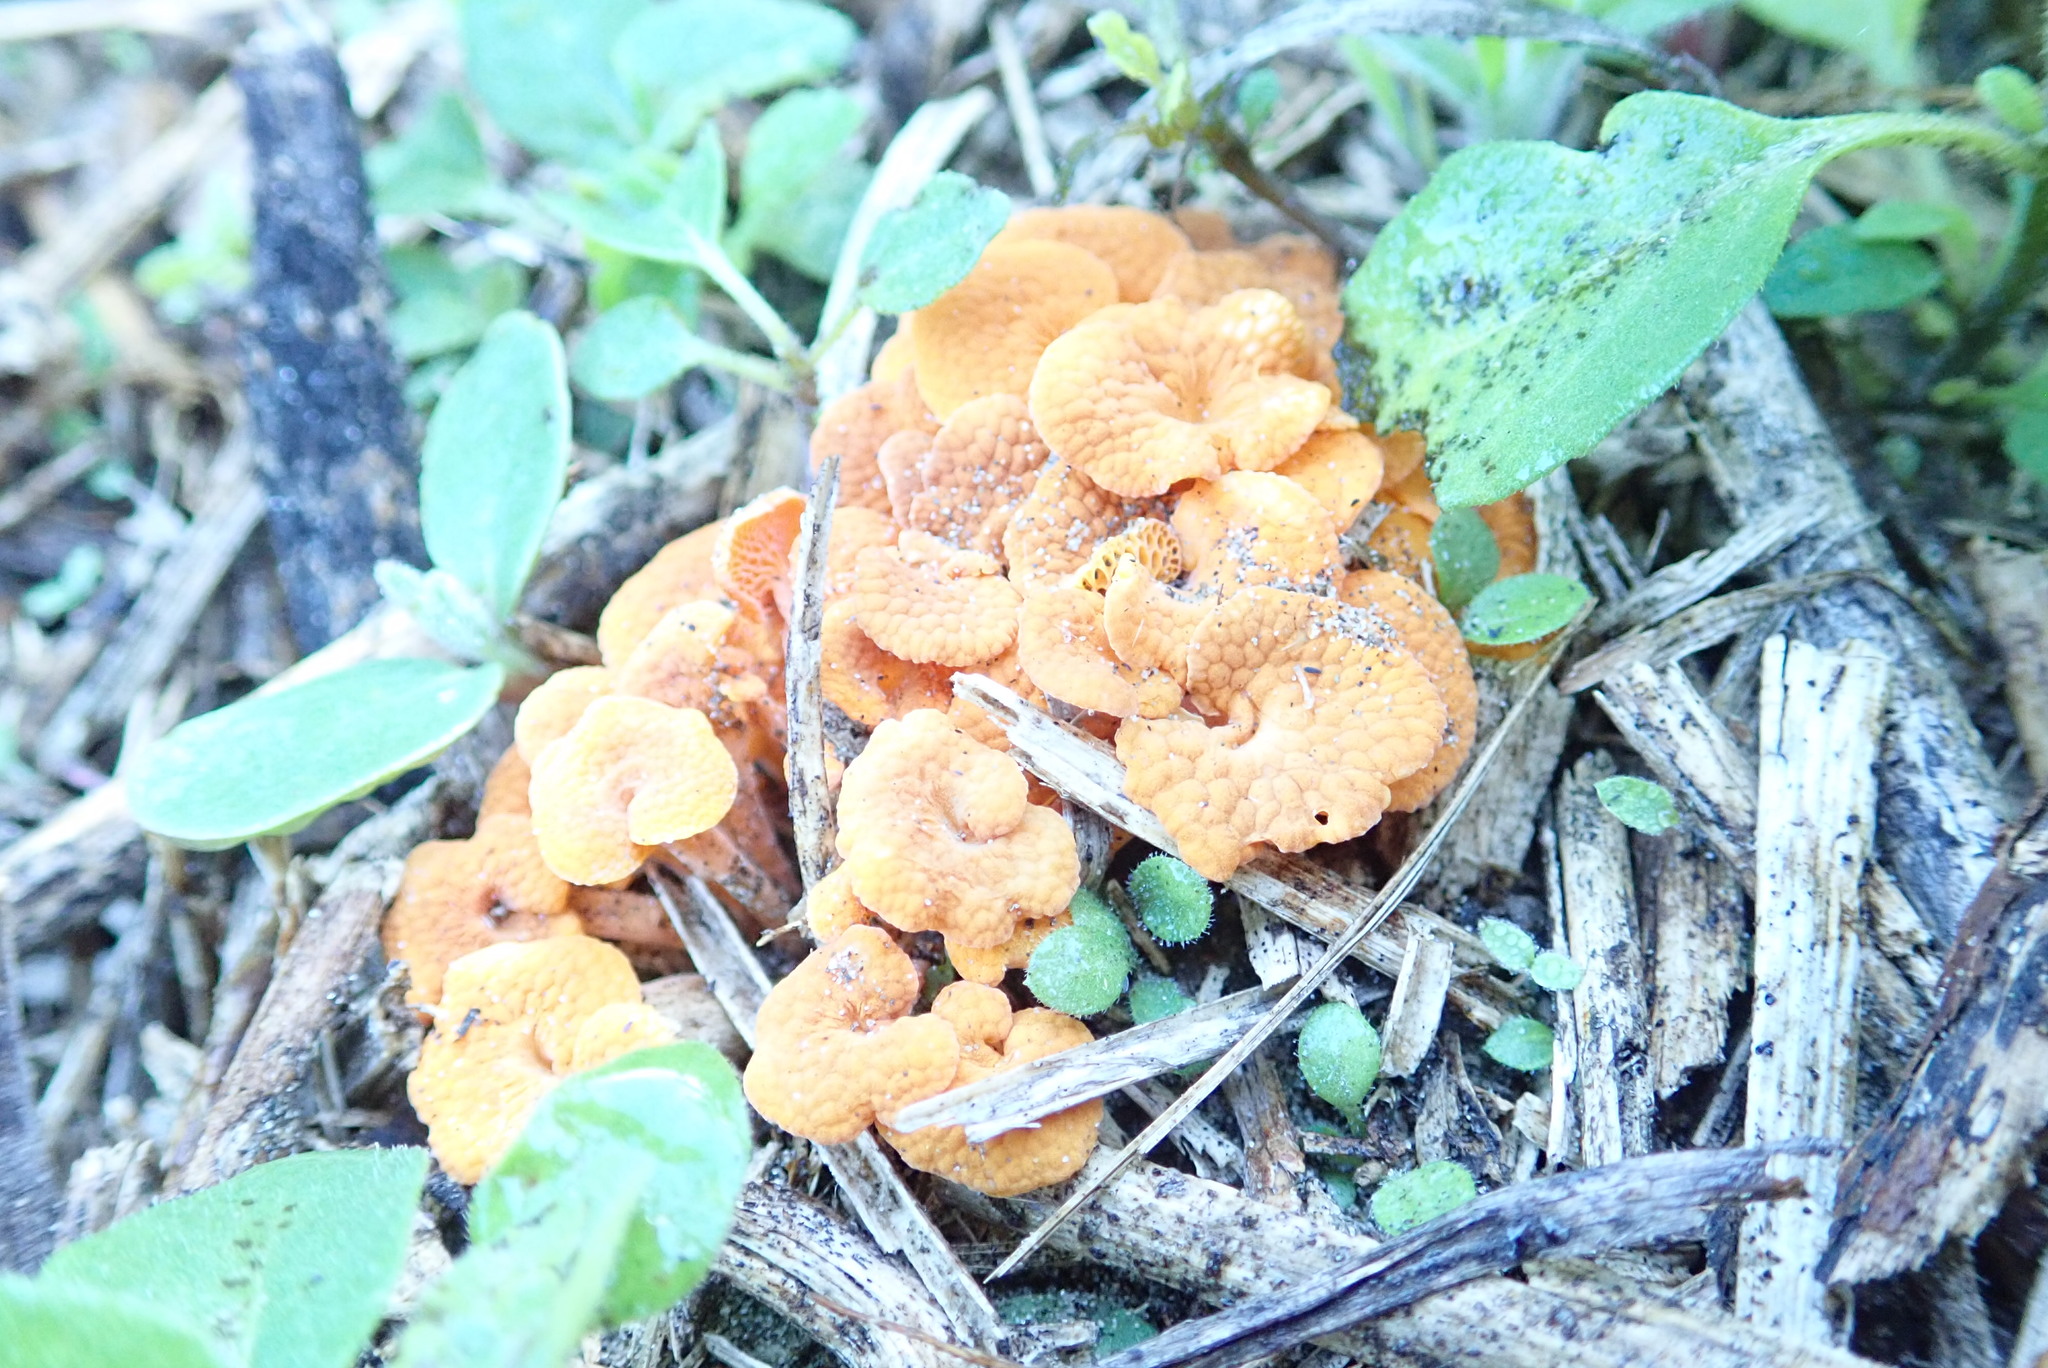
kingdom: Fungi
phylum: Basidiomycota
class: Agaricomycetes
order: Agaricales
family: Mycenaceae
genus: Favolaschia
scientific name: Favolaschia claudopus
